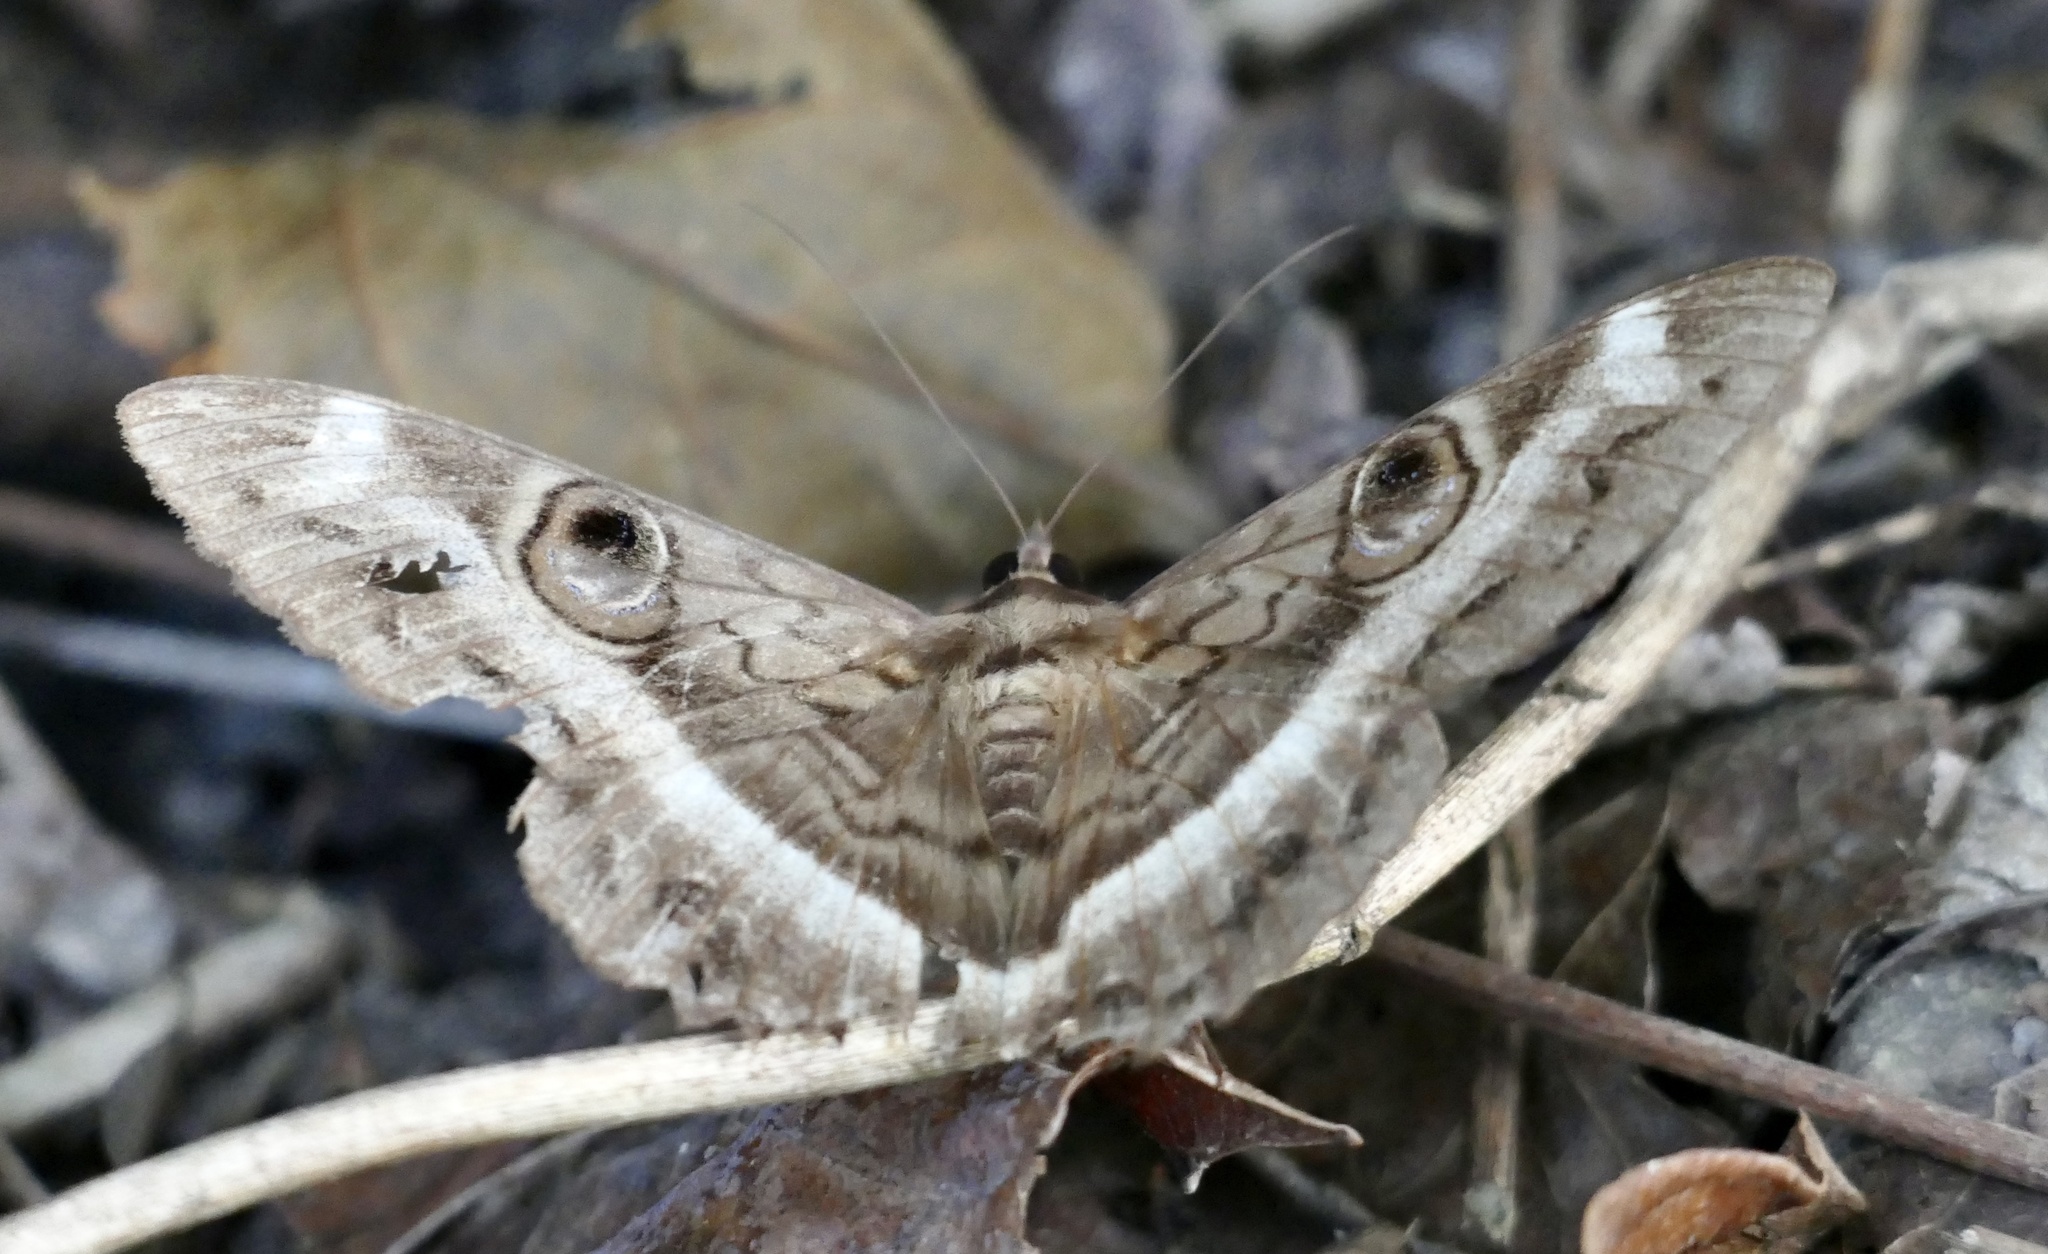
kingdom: Animalia
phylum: Arthropoda
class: Insecta
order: Lepidoptera
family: Erebidae
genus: Cyligramma
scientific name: Cyligramma magus
